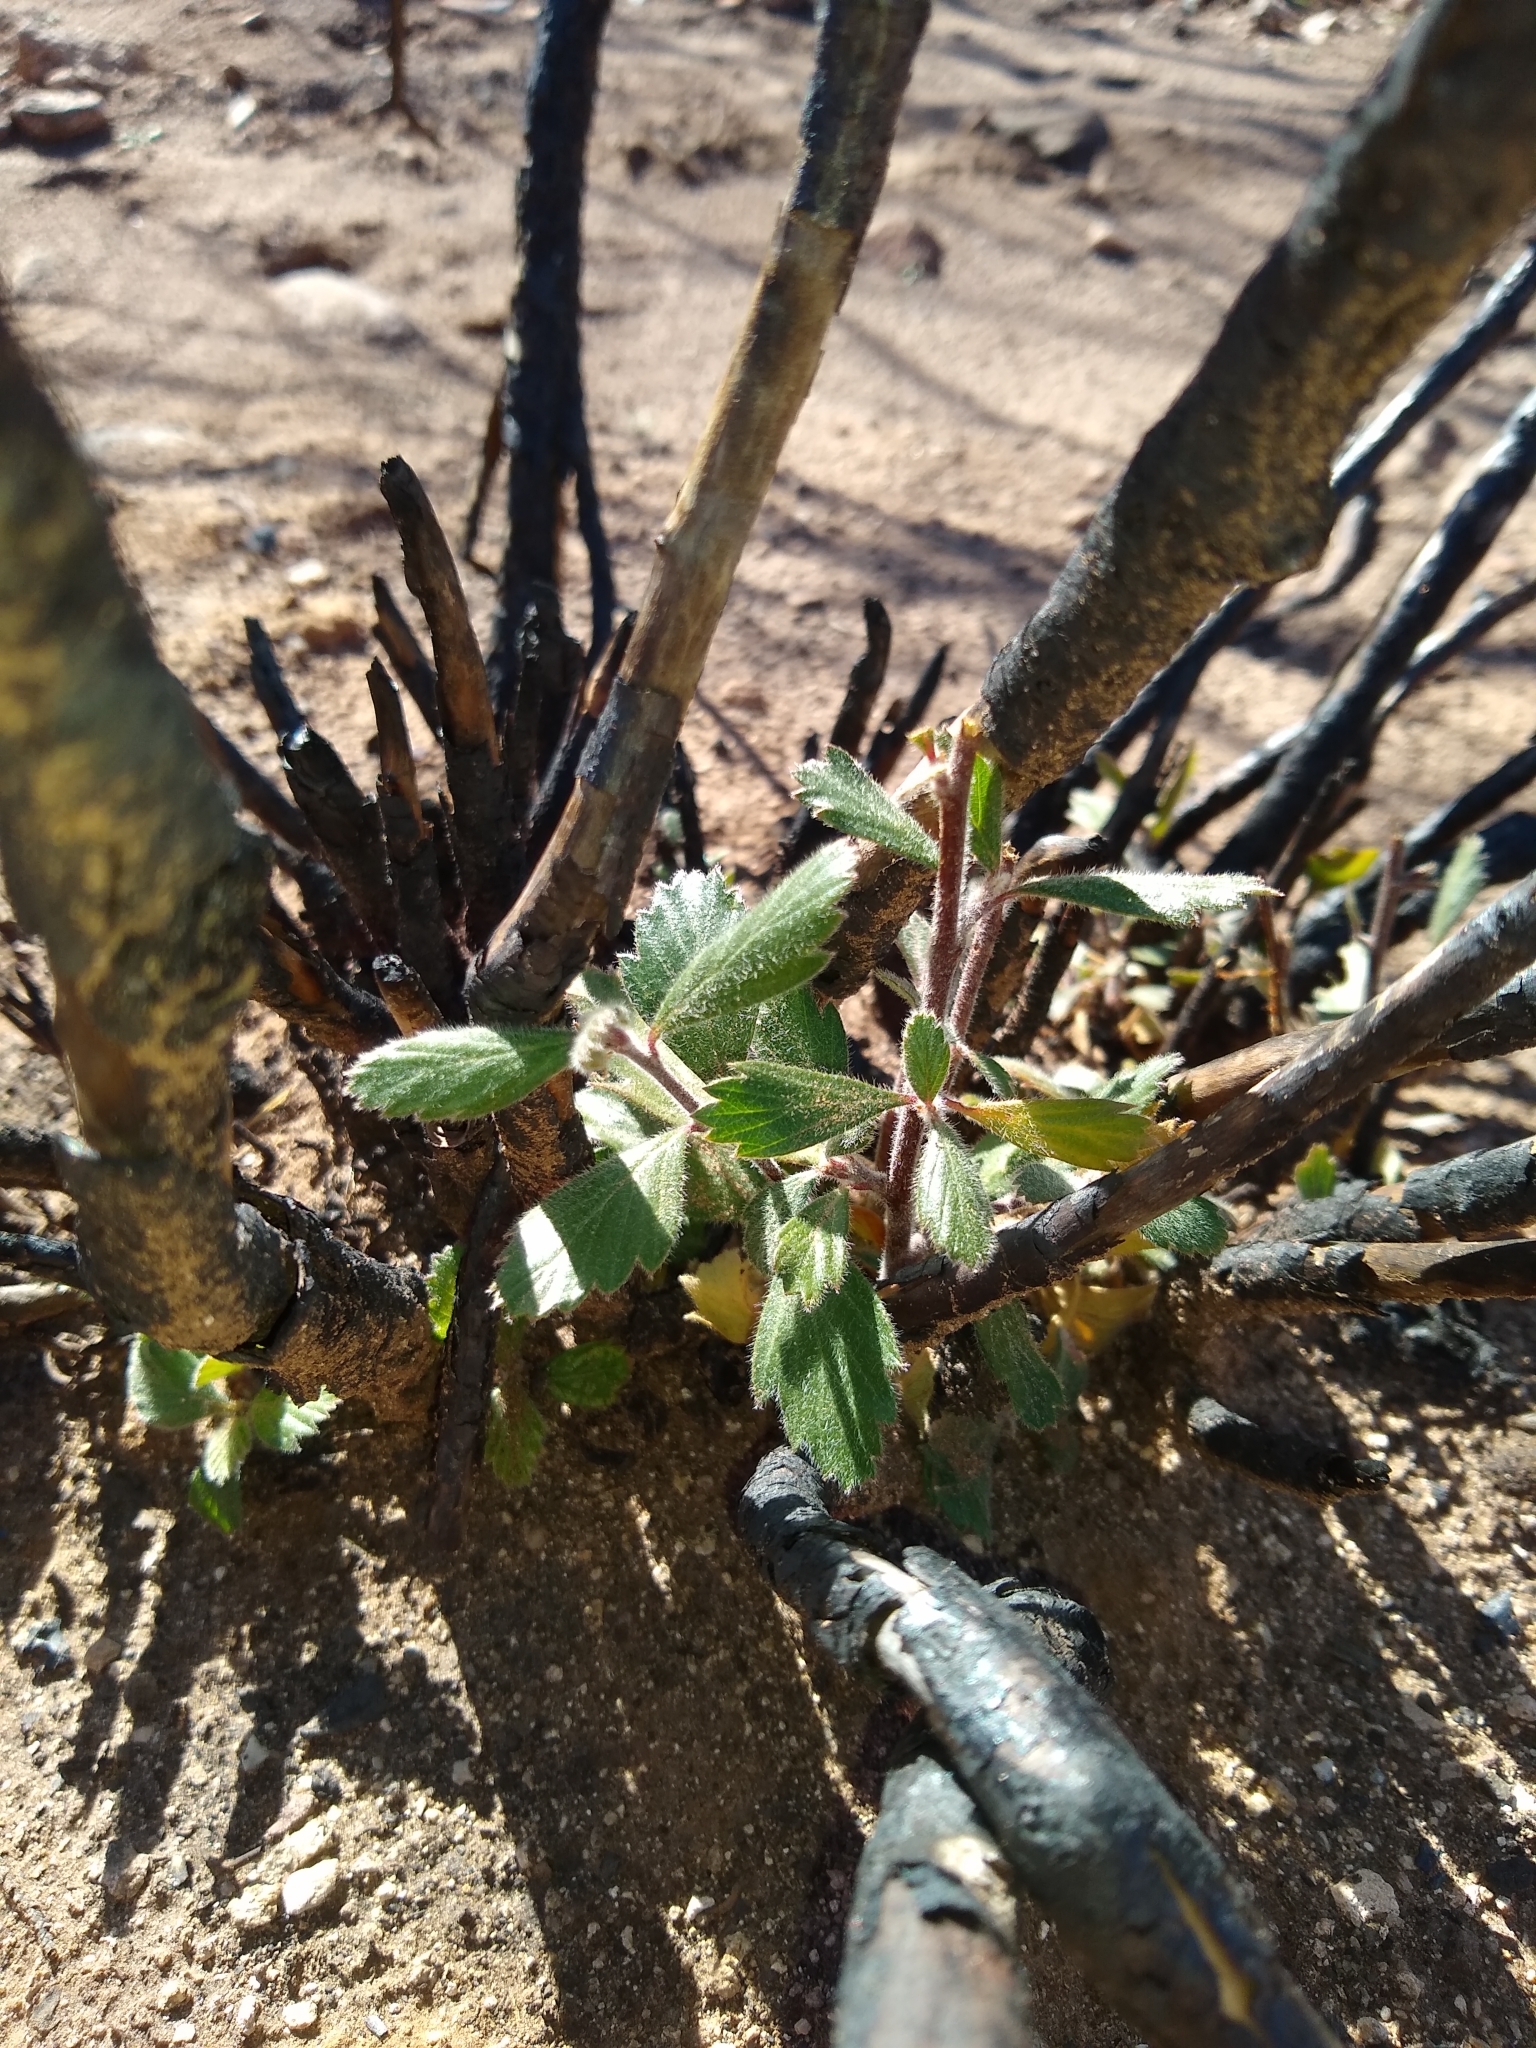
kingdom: Plantae
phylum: Tracheophyta
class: Magnoliopsida
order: Rosales
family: Rosaceae
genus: Cercocarpus
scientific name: Cercocarpus montanus
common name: Alder-leaf cercocarpus
